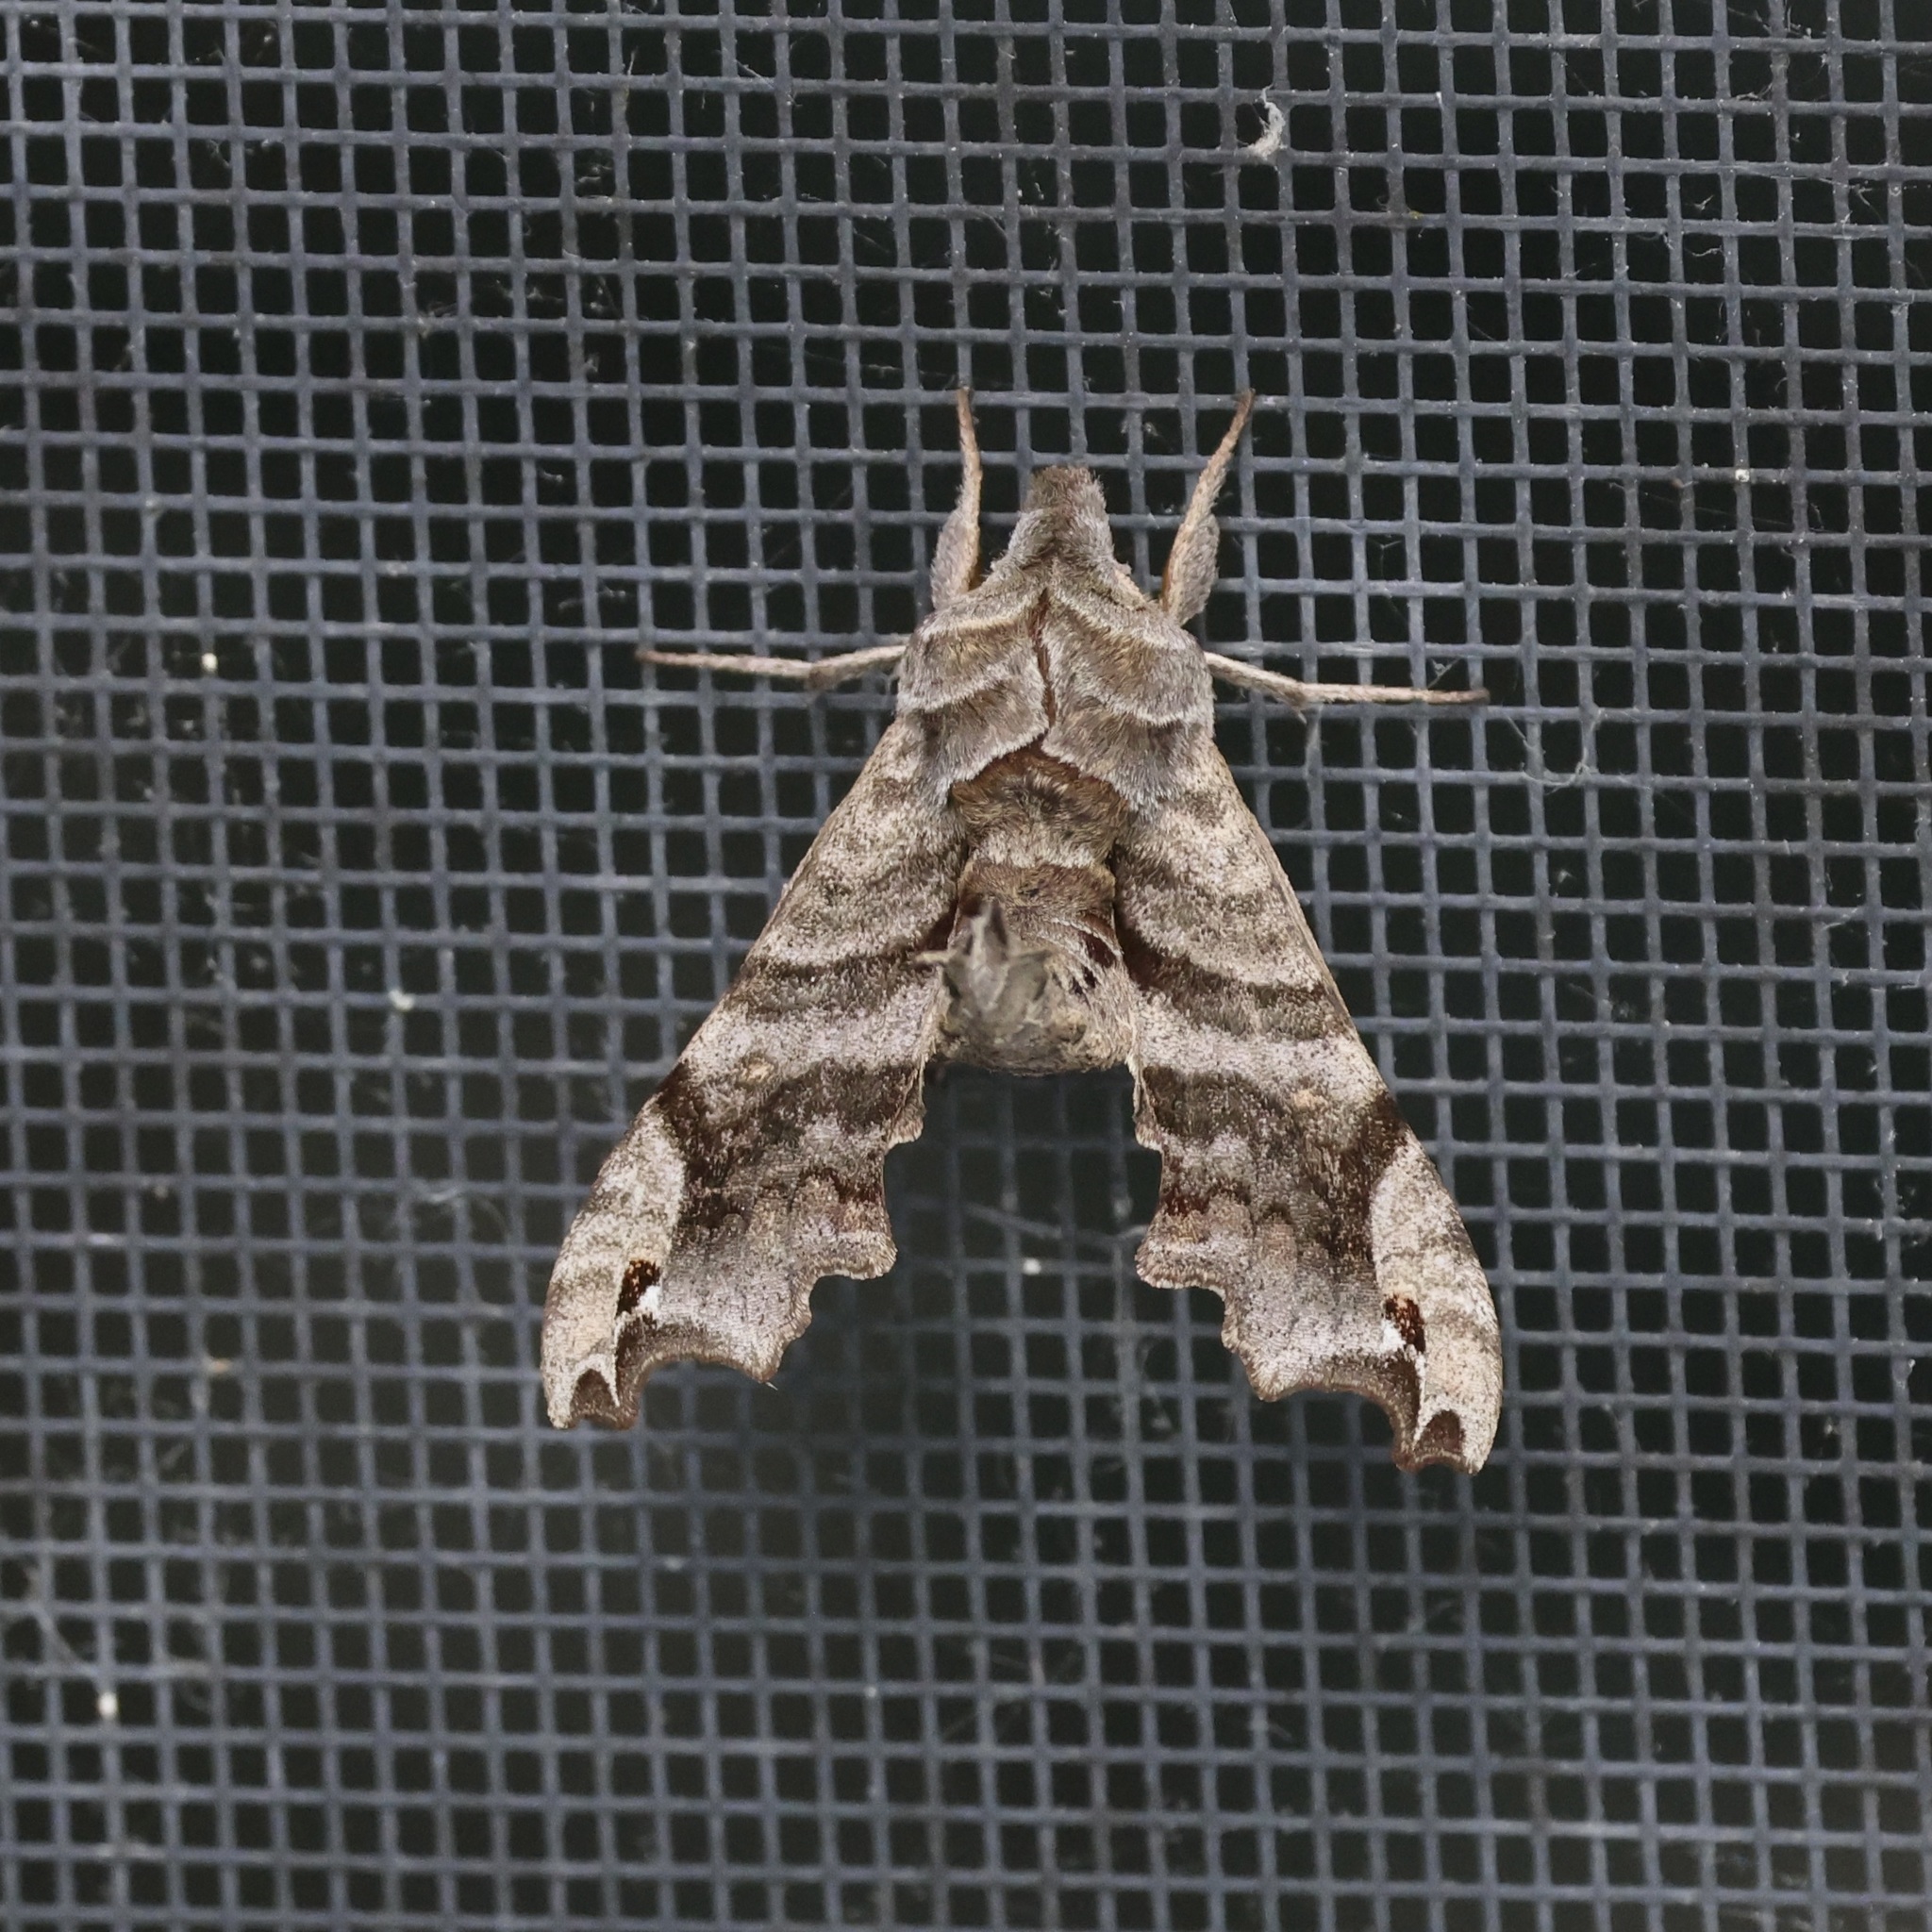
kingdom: Animalia
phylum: Arthropoda
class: Insecta
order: Lepidoptera
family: Sphingidae
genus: Deidamia
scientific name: Deidamia inscriptum
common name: Lettered sphinx
